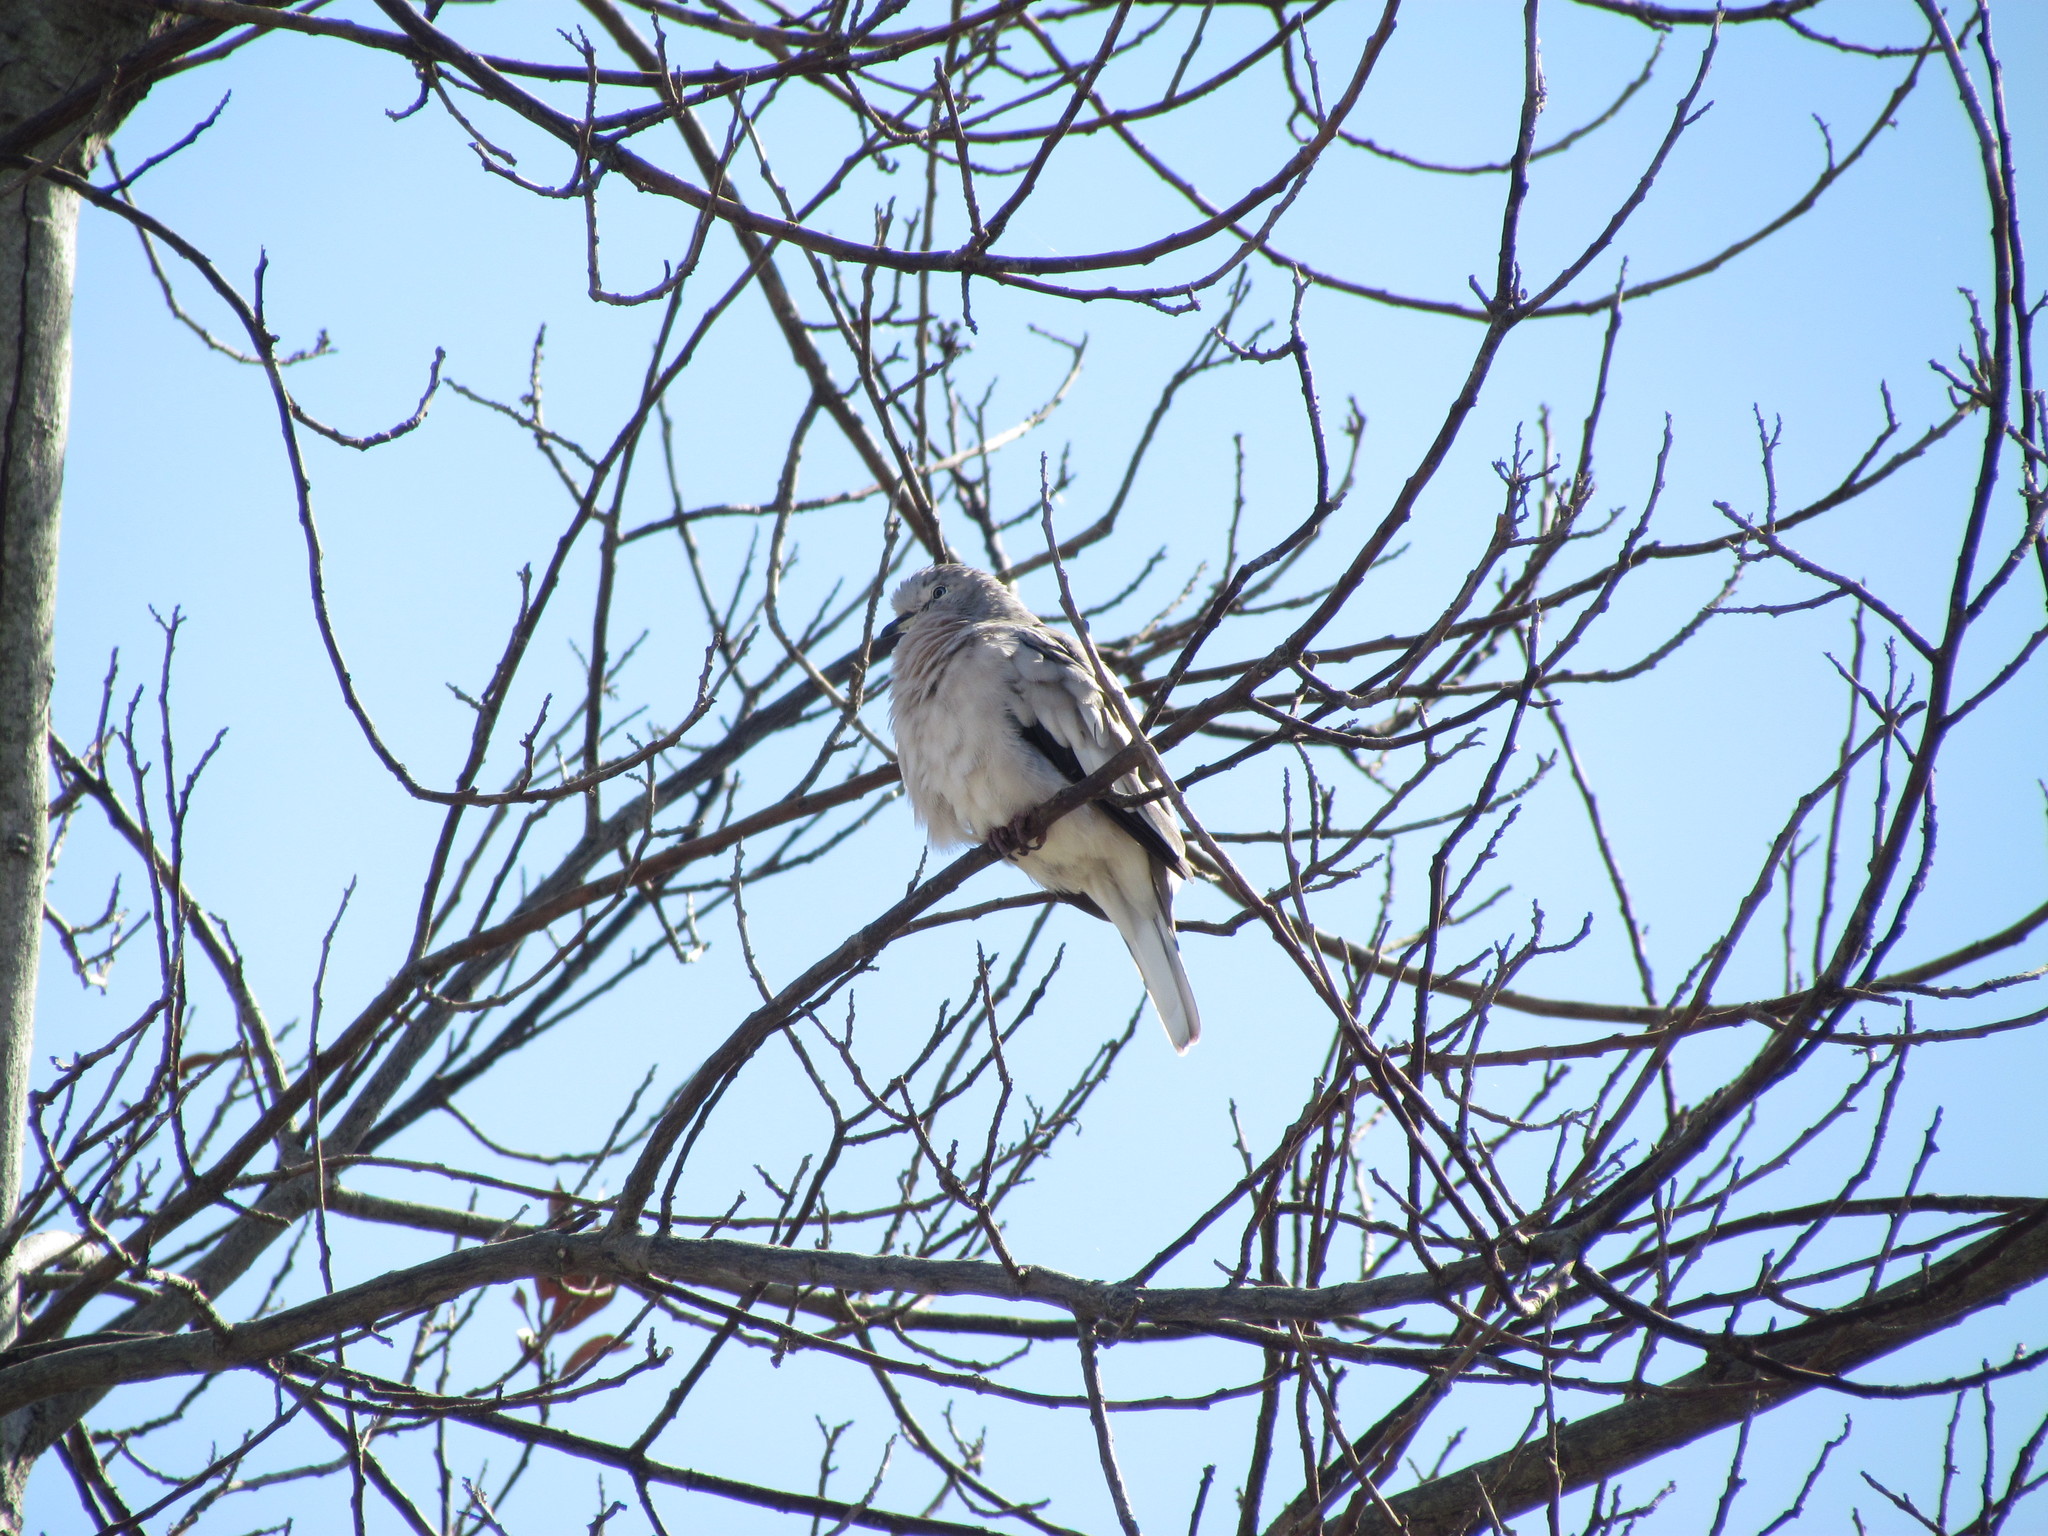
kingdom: Animalia
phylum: Chordata
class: Aves
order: Columbiformes
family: Columbidae
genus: Columbina
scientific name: Columbina picui
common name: Picui ground dove
